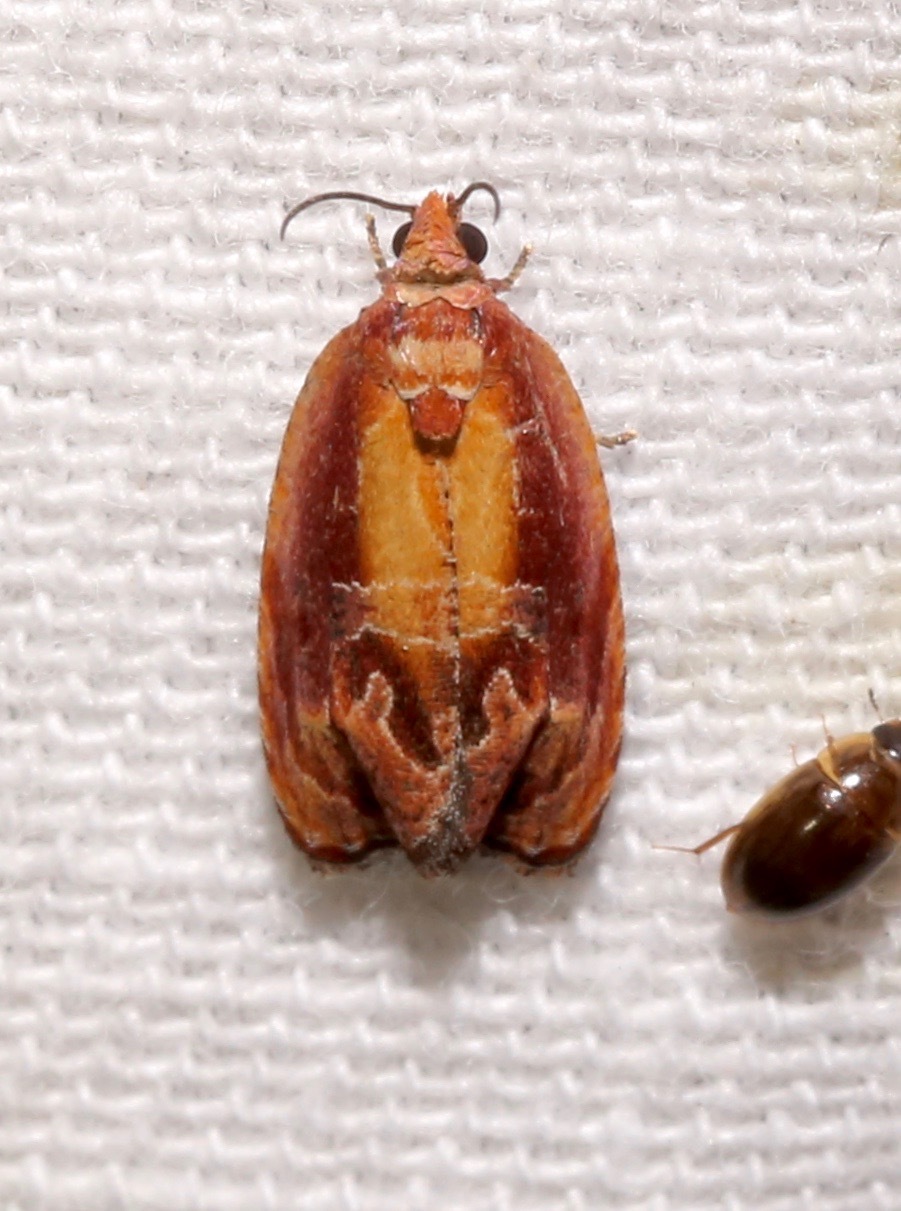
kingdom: Animalia
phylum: Arthropoda
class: Insecta
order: Lepidoptera
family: Tortricidae
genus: Zomaria
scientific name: Zomaria rosaochreana
